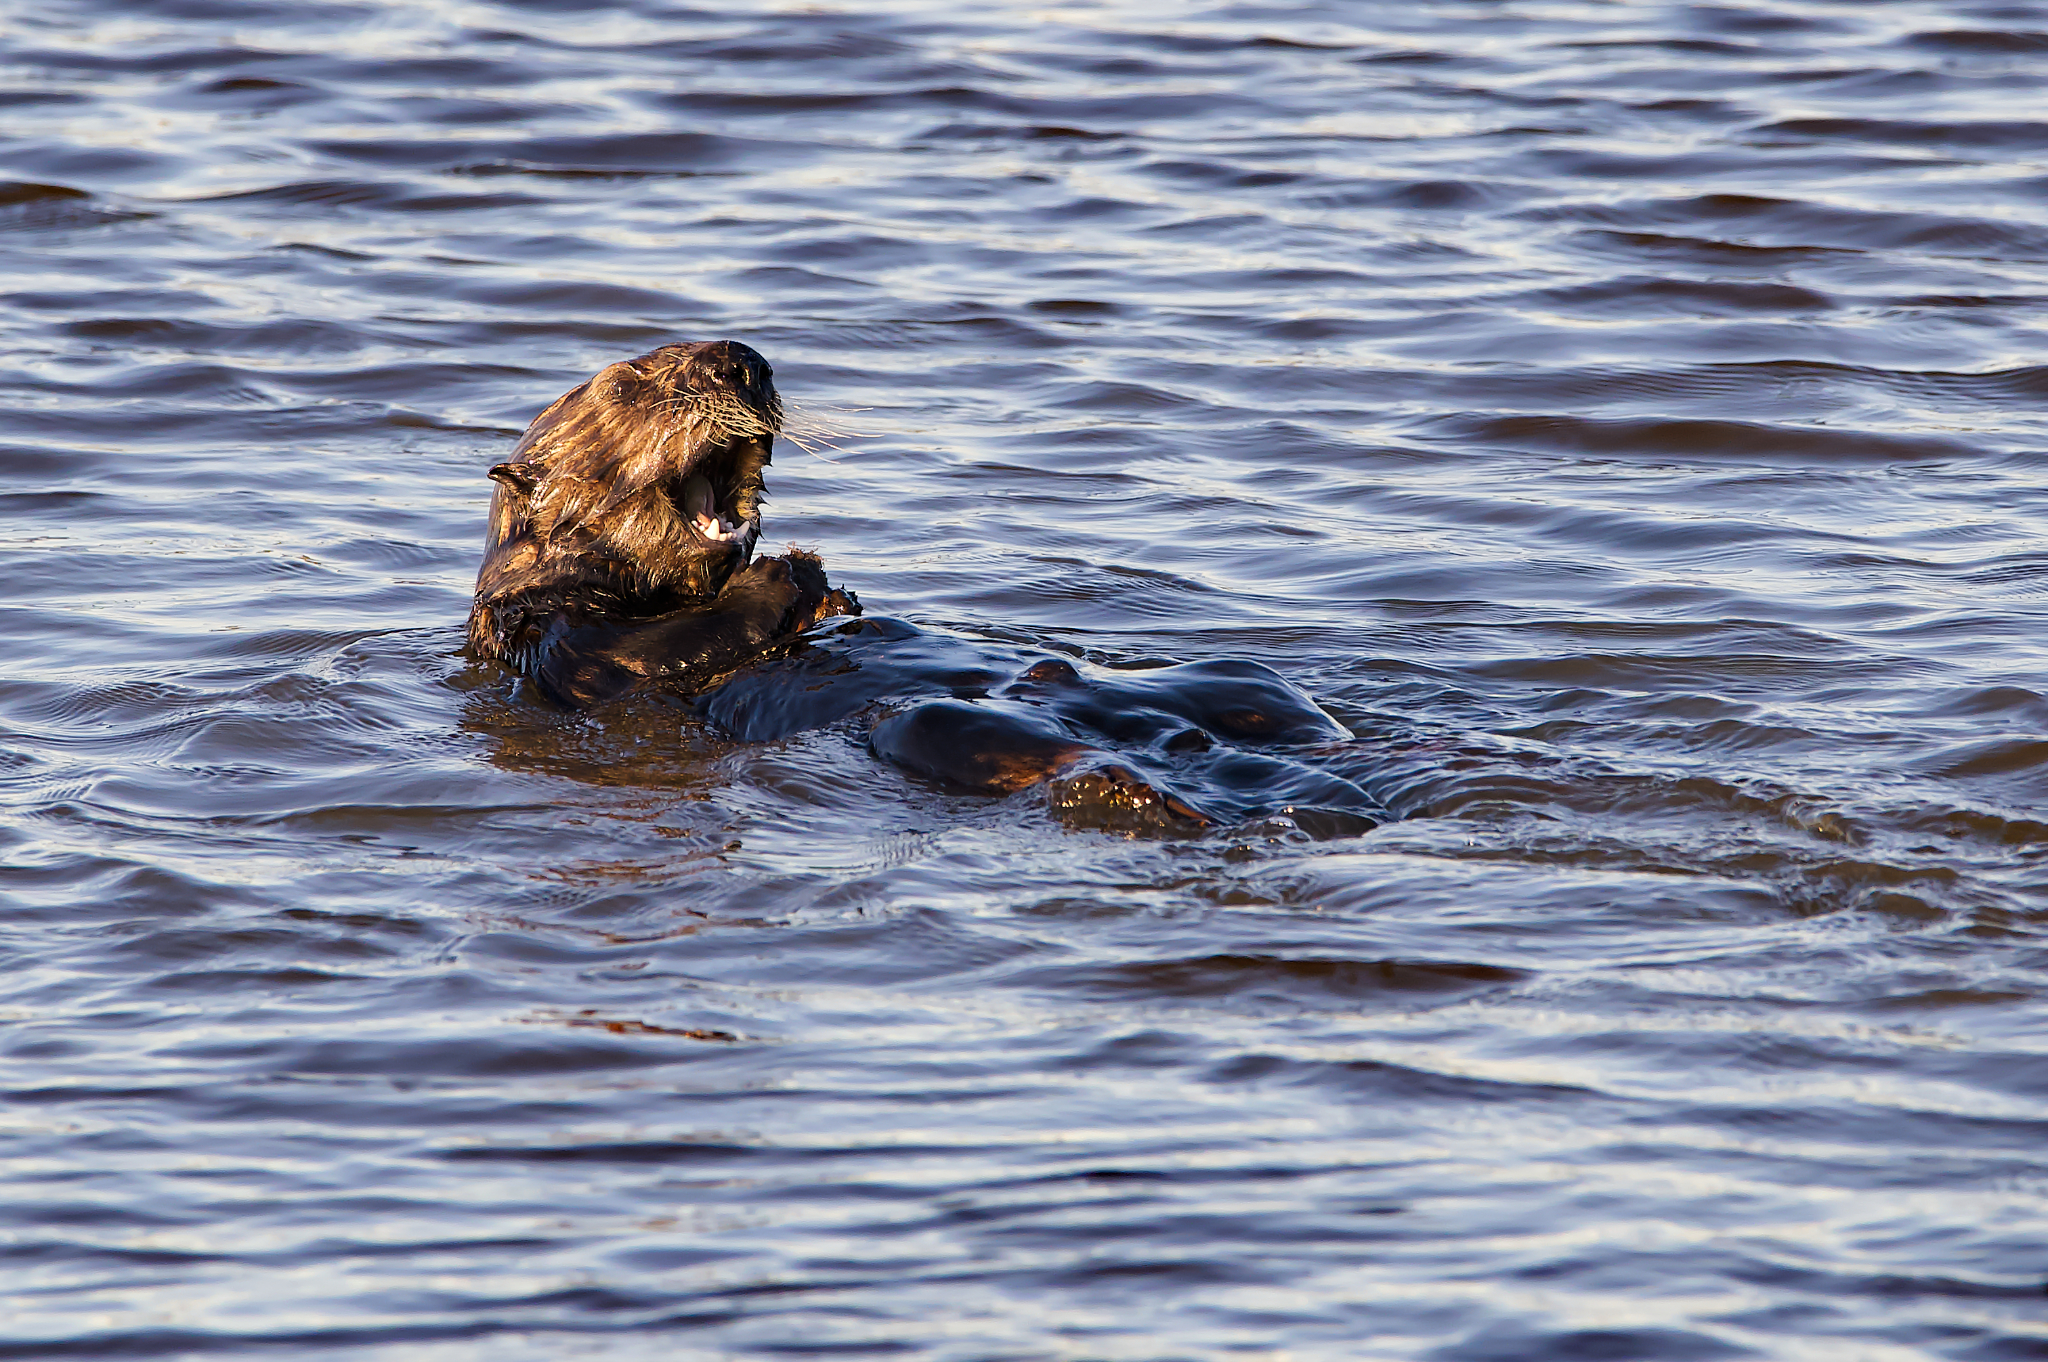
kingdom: Animalia
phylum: Chordata
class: Mammalia
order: Carnivora
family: Mustelidae
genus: Enhydra
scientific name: Enhydra lutris
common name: Sea otter
